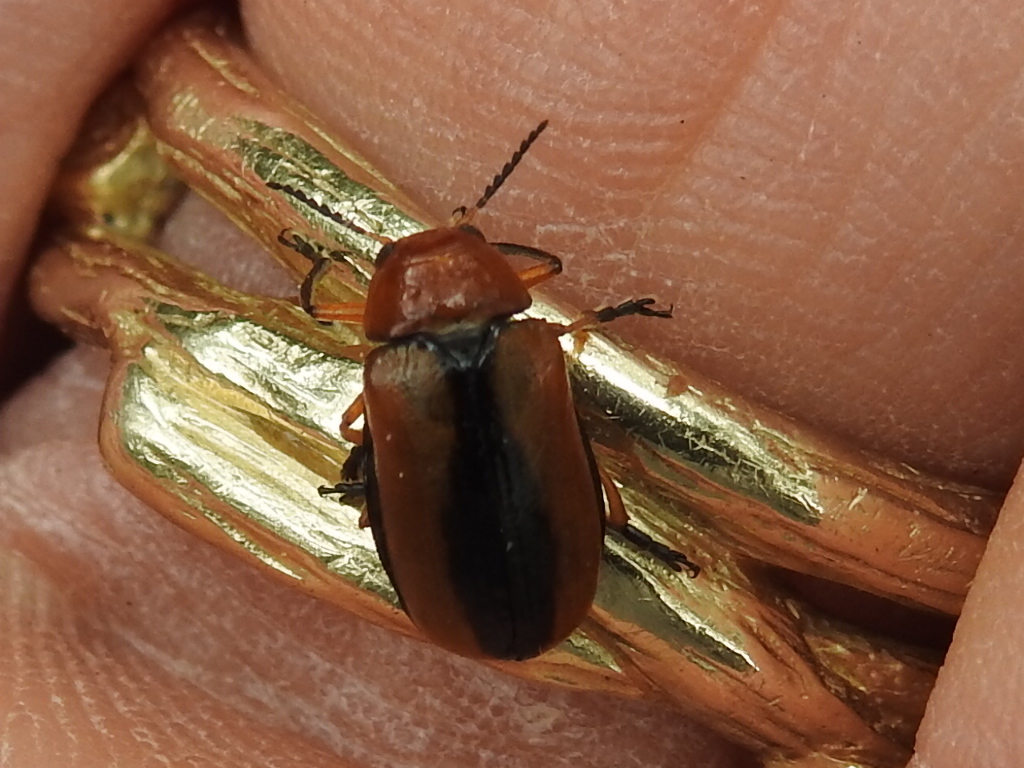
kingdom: Animalia
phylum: Arthropoda
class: Insecta
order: Coleoptera
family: Chrysomelidae
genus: Anomoea
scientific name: Anomoea laticlavia
